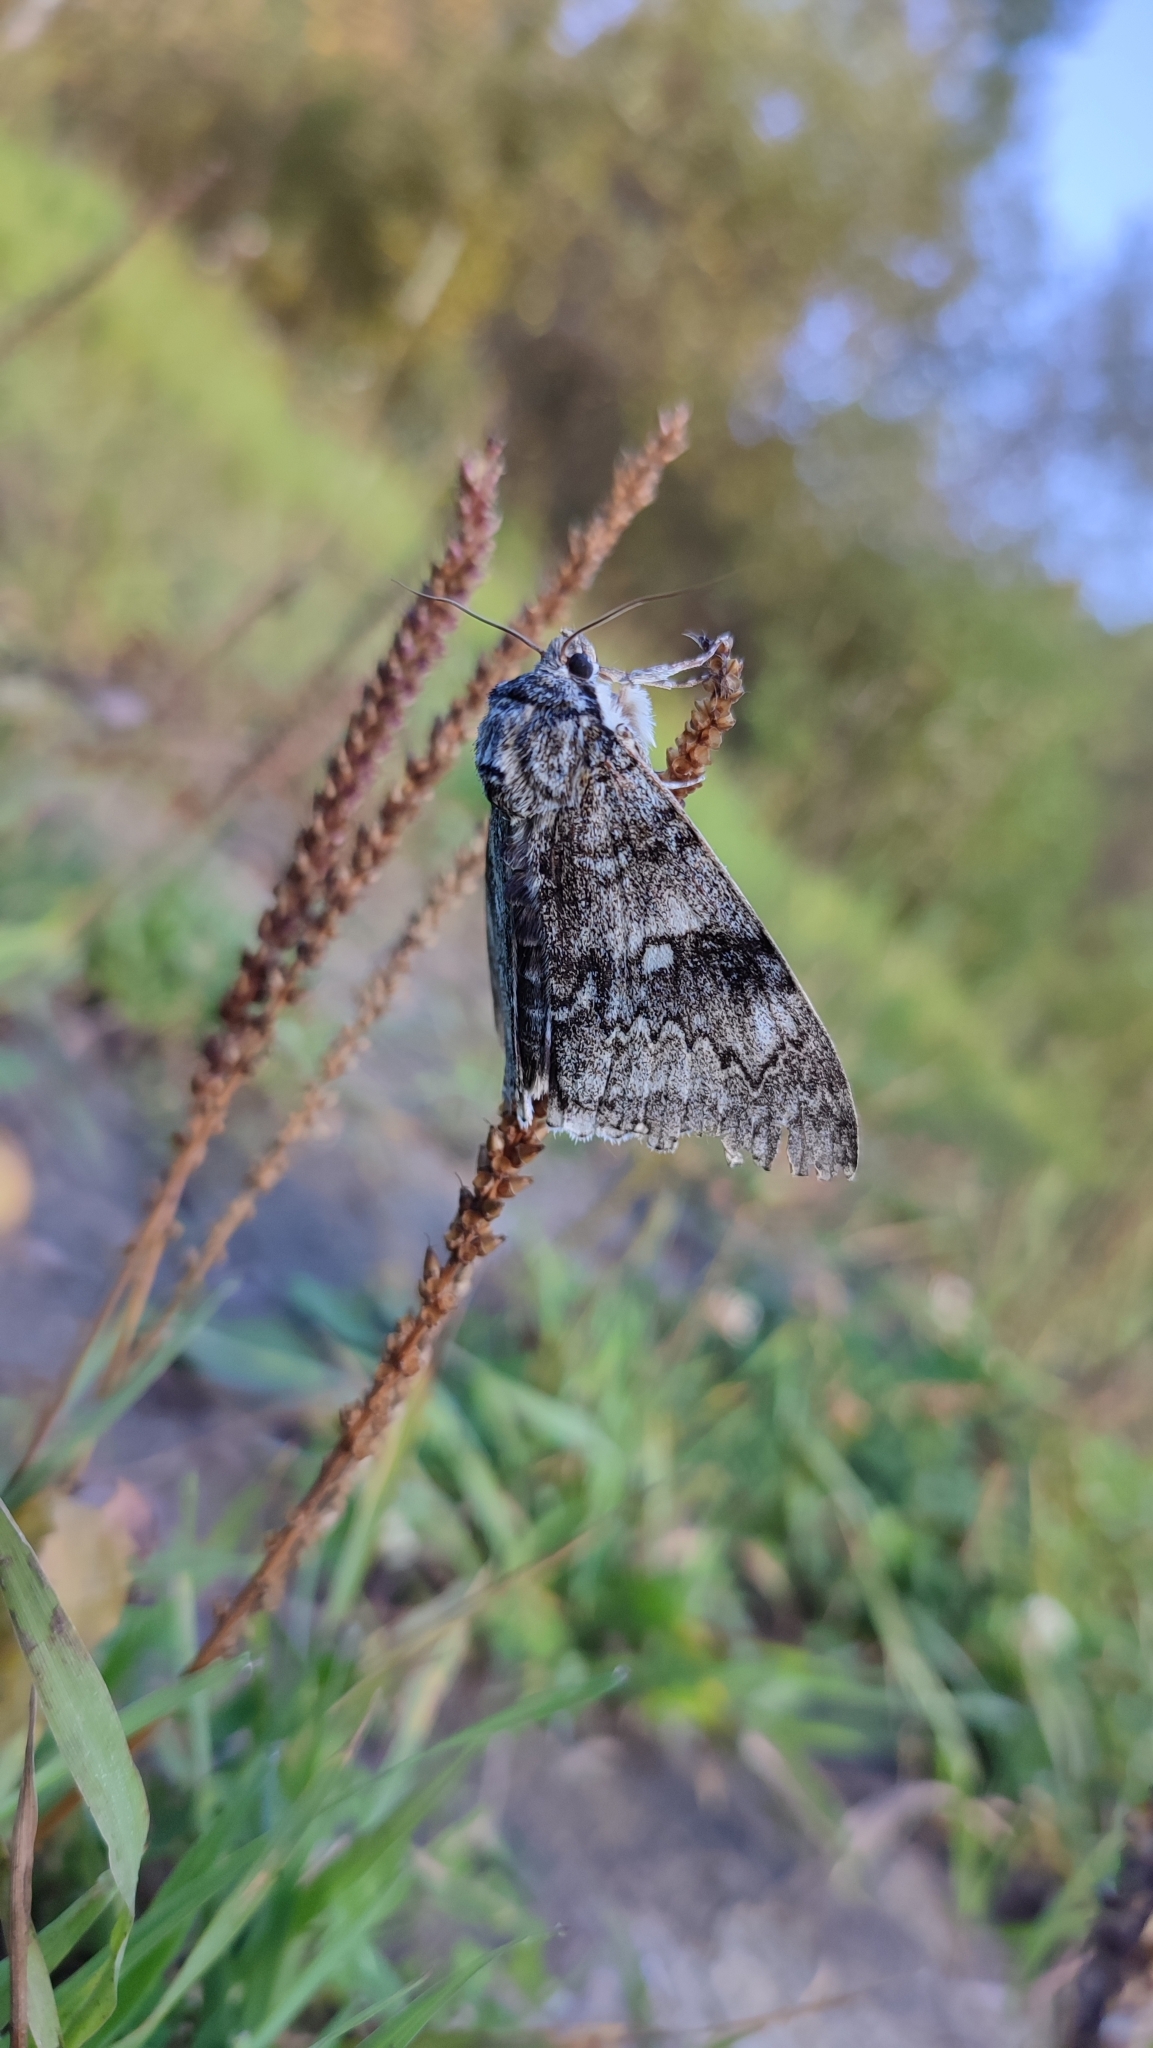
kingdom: Animalia
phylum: Arthropoda
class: Insecta
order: Lepidoptera
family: Erebidae
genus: Catocala
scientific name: Catocala fraxini
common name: Clifden nonpareil
